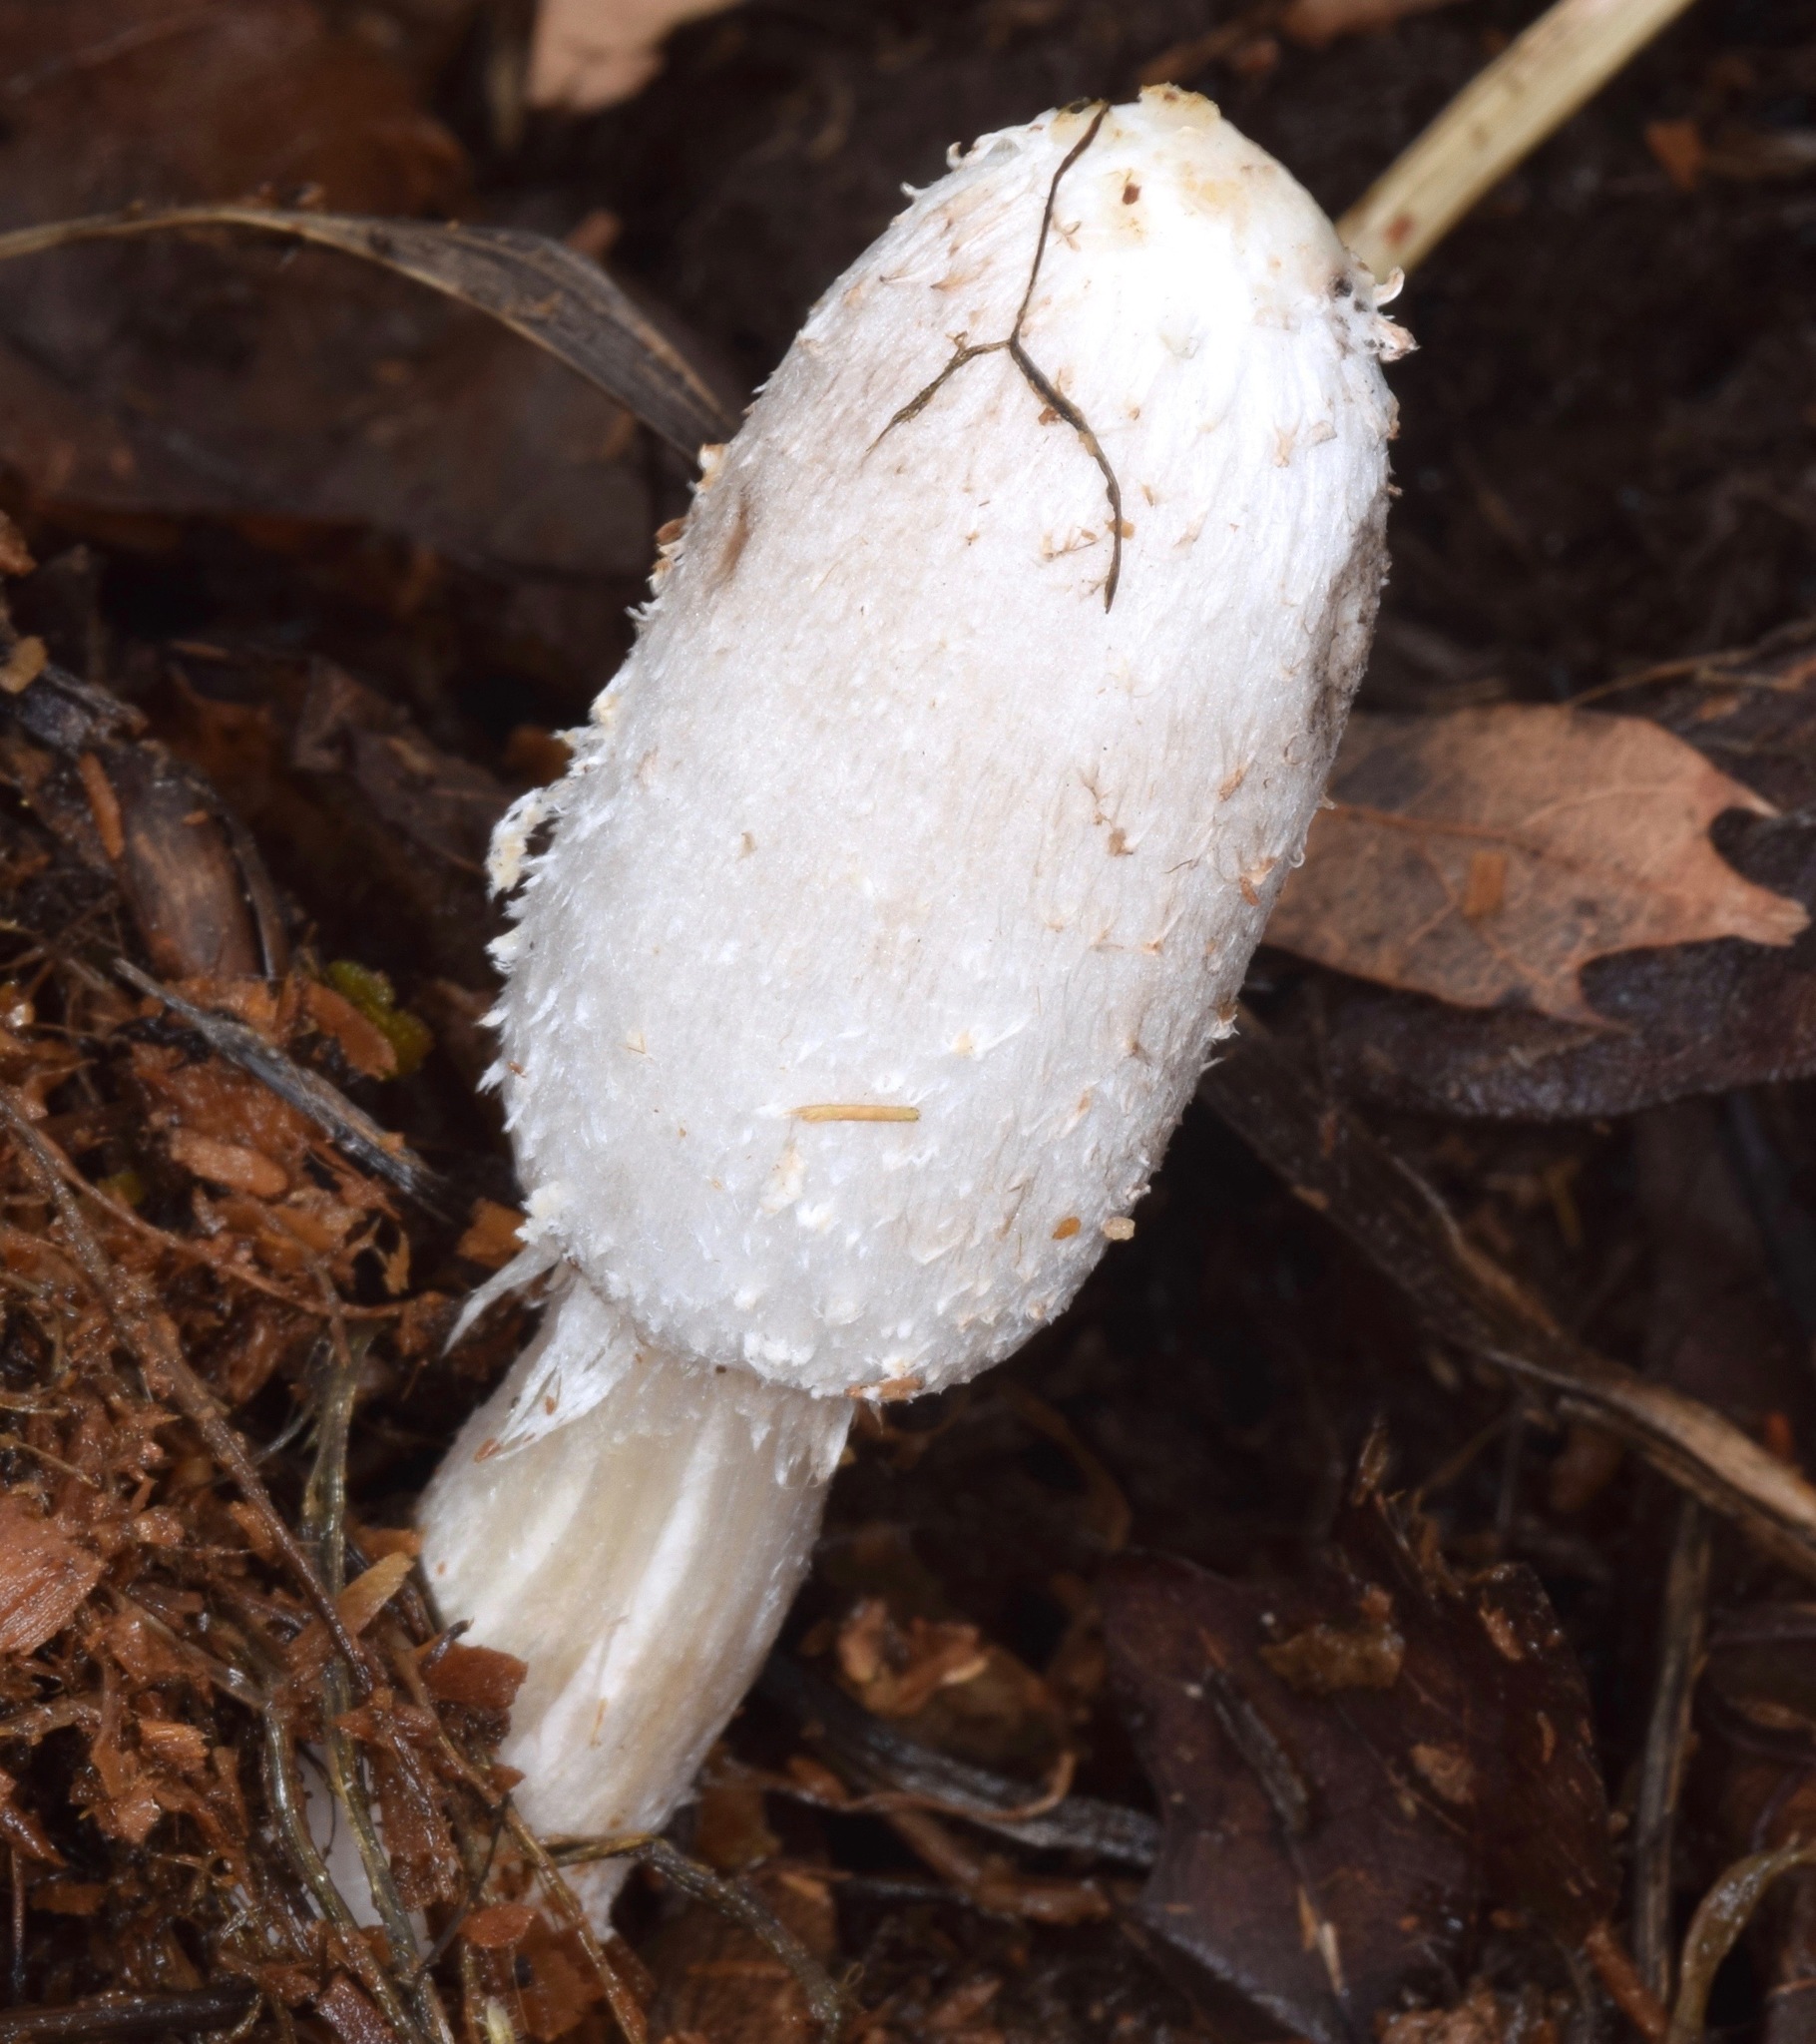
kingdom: Fungi
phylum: Basidiomycota
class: Agaricomycetes
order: Agaricales
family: Agaricaceae
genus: Coprinus
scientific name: Coprinus sterquilinus
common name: Midden inkcap
